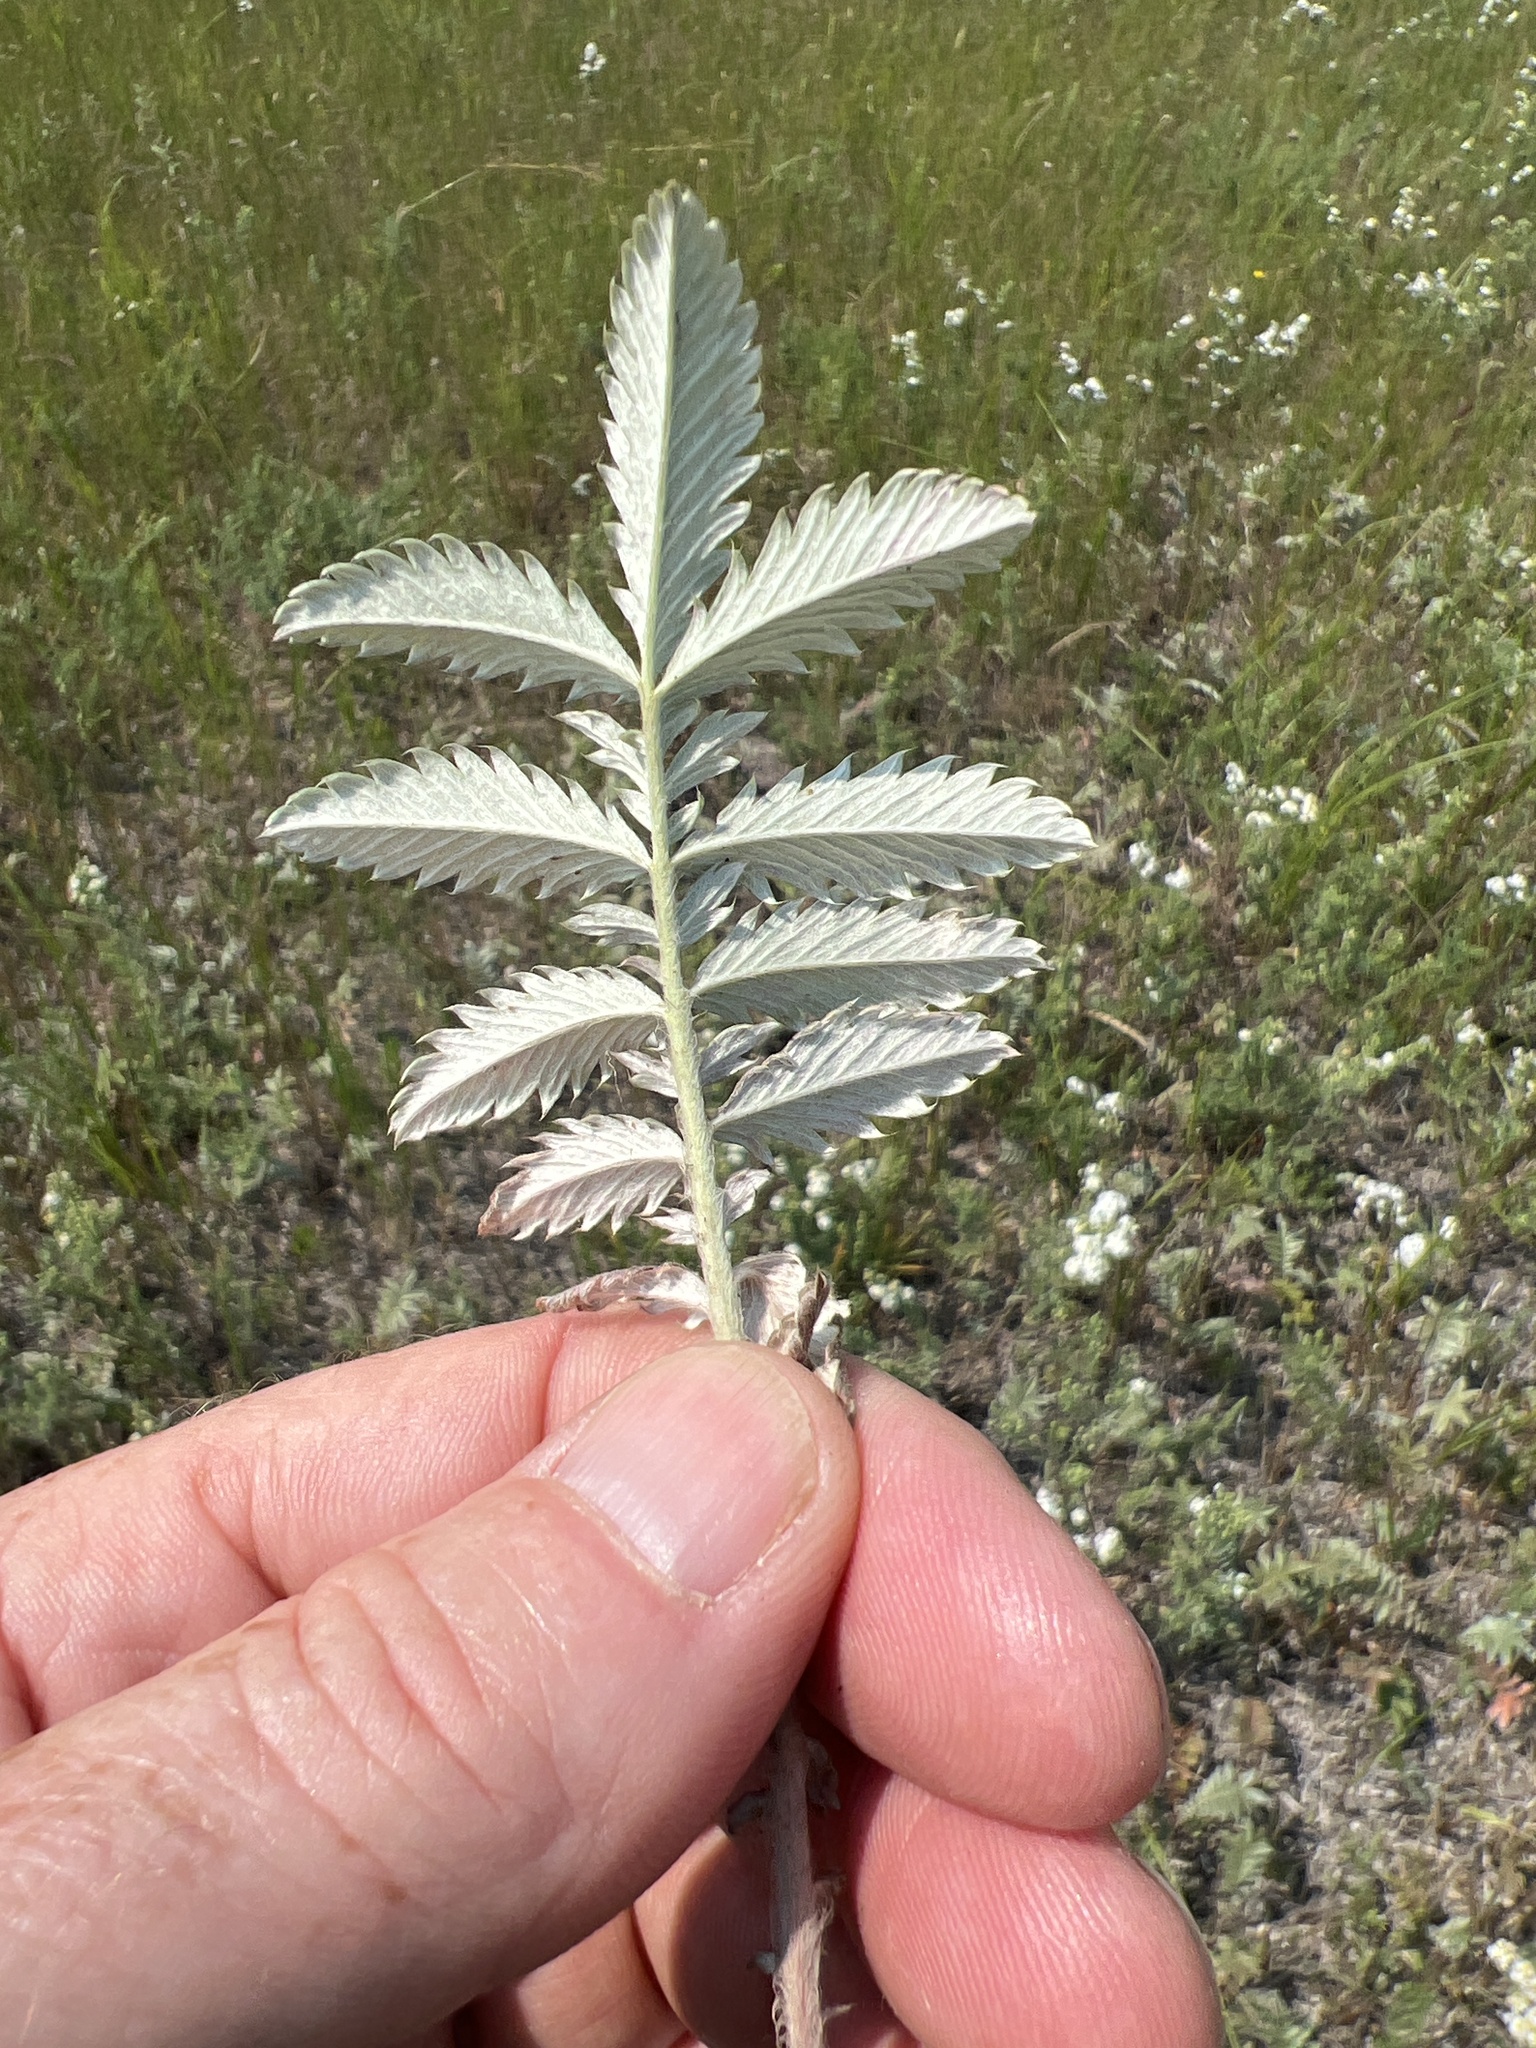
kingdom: Plantae
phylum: Tracheophyta
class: Magnoliopsida
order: Rosales
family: Rosaceae
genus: Argentina
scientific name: Argentina anserina
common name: Common silverweed
